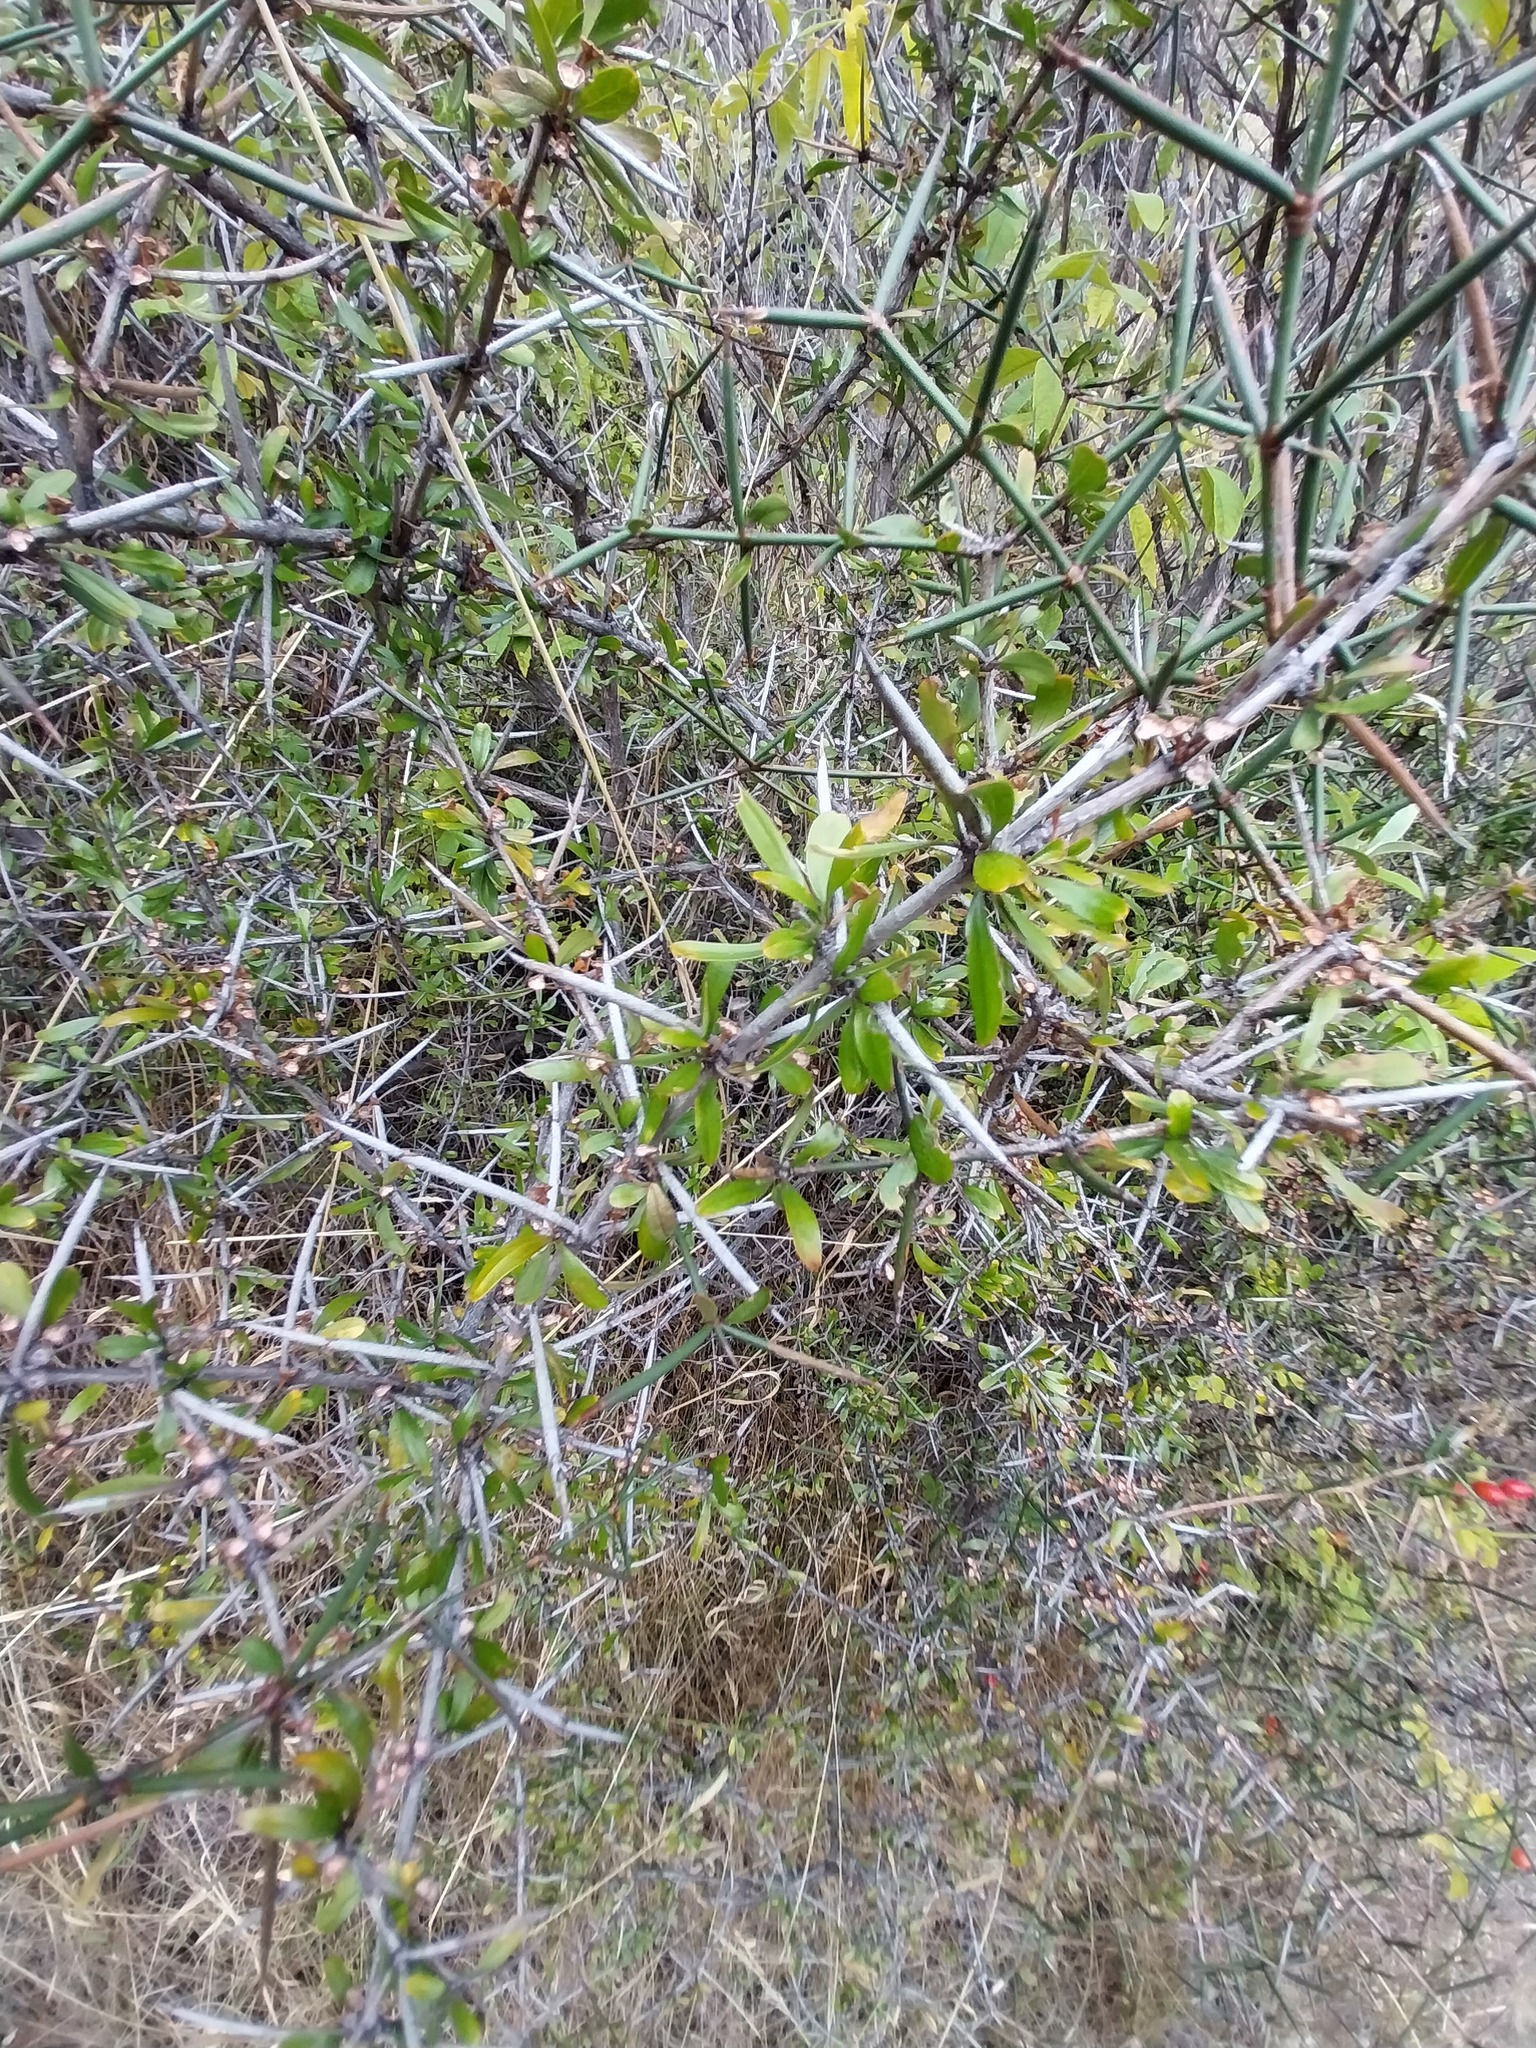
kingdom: Plantae
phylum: Tracheophyta
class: Magnoliopsida
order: Rosales
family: Rhamnaceae
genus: Discaria
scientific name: Discaria toumatou
